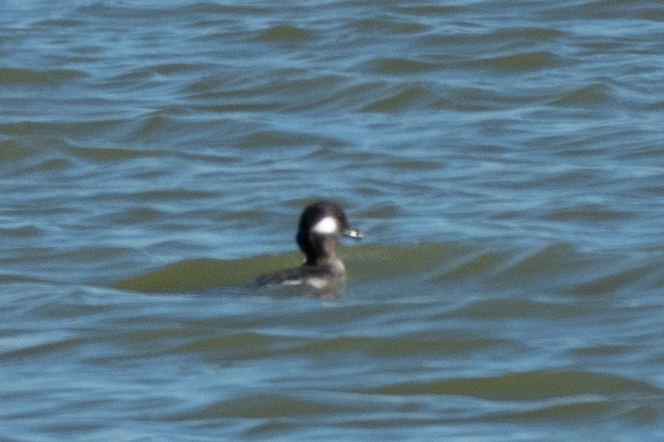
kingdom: Animalia
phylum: Chordata
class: Aves
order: Anseriformes
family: Anatidae
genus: Bucephala
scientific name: Bucephala albeola
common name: Bufflehead
